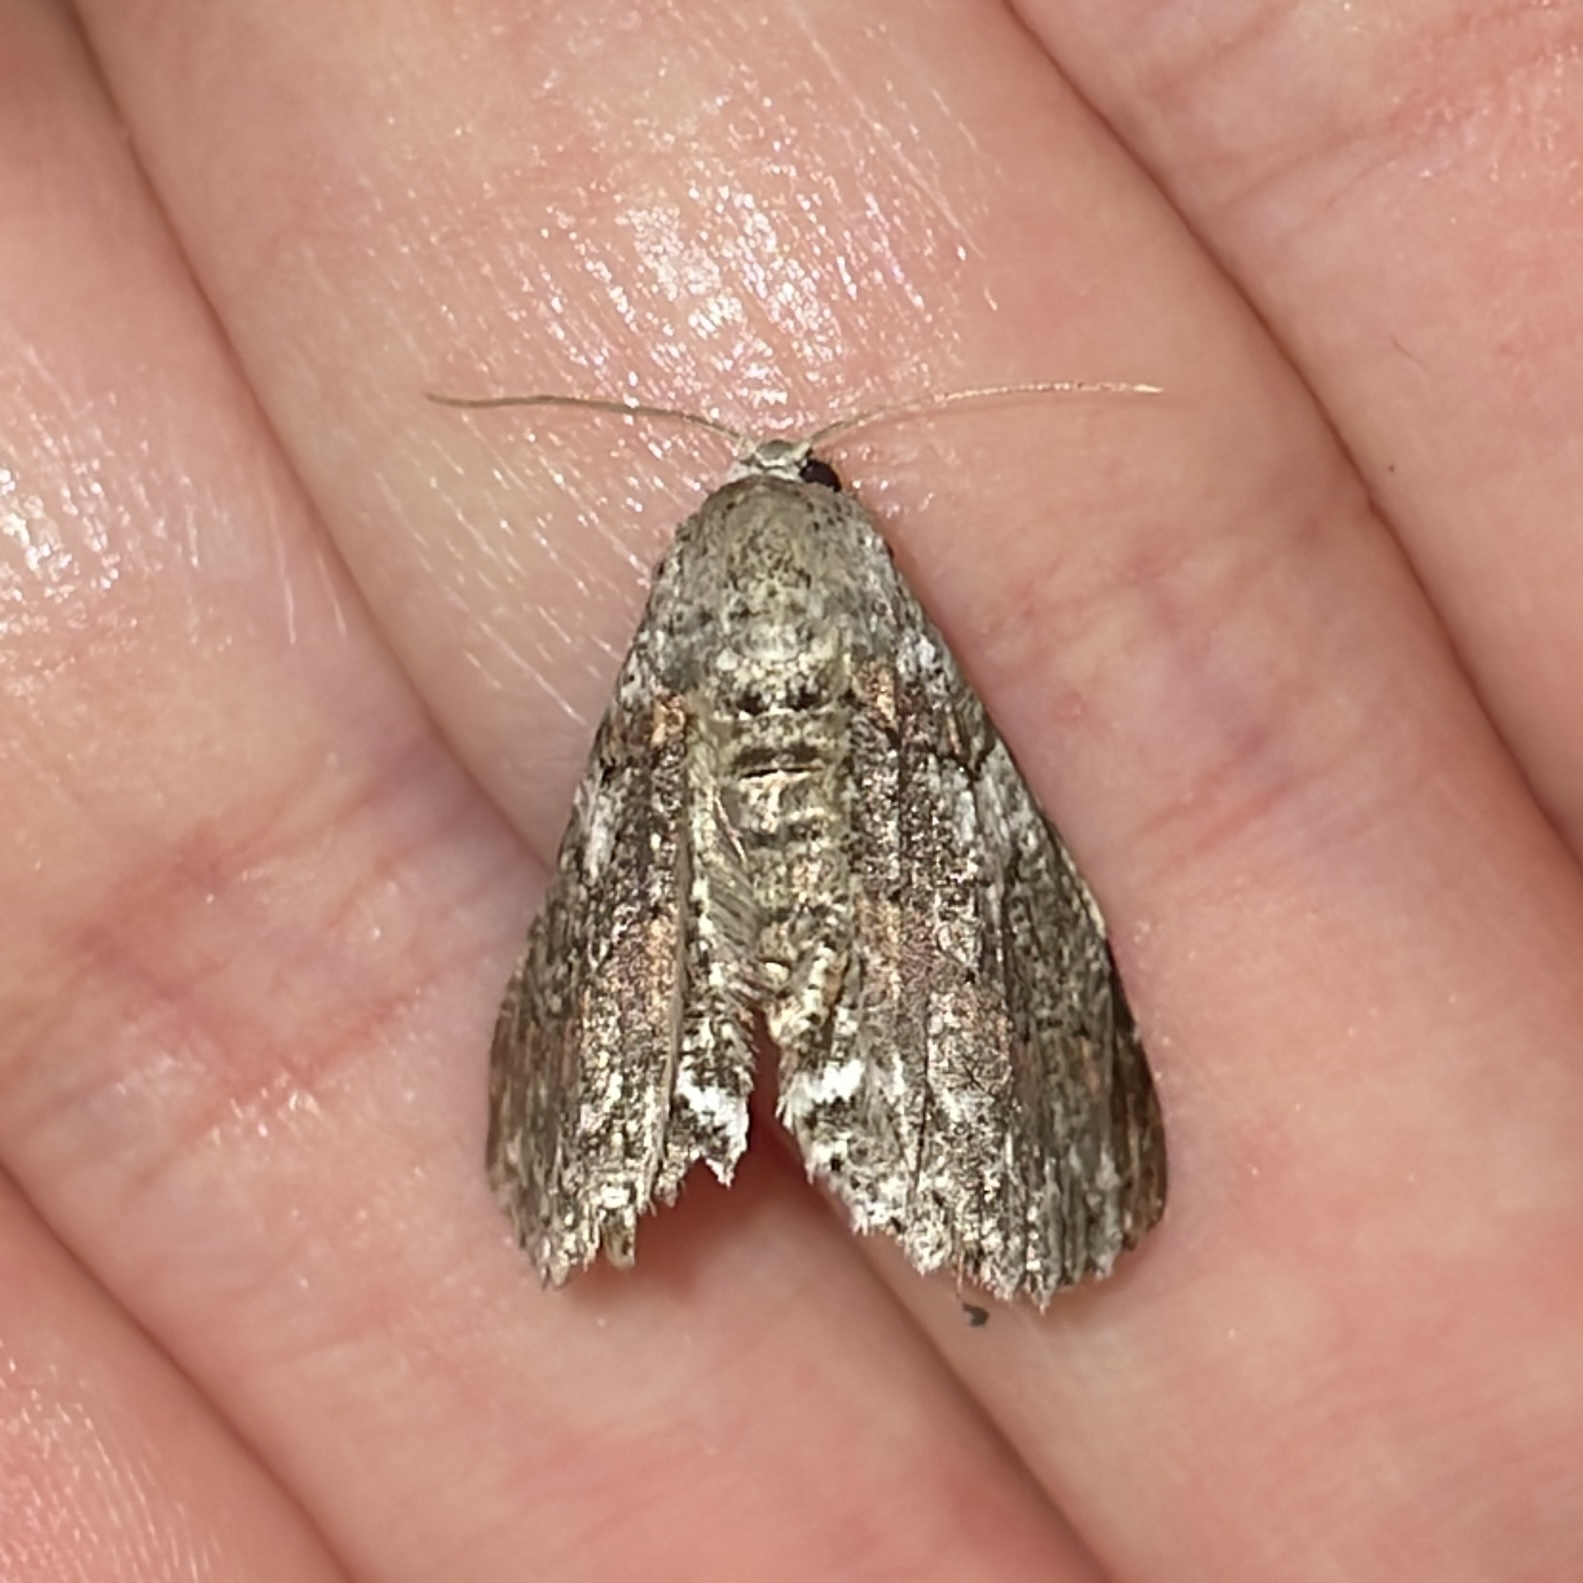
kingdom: Animalia
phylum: Arthropoda
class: Insecta
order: Lepidoptera
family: Geometridae
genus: Bryoptera
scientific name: Bryoptera hypomelas
